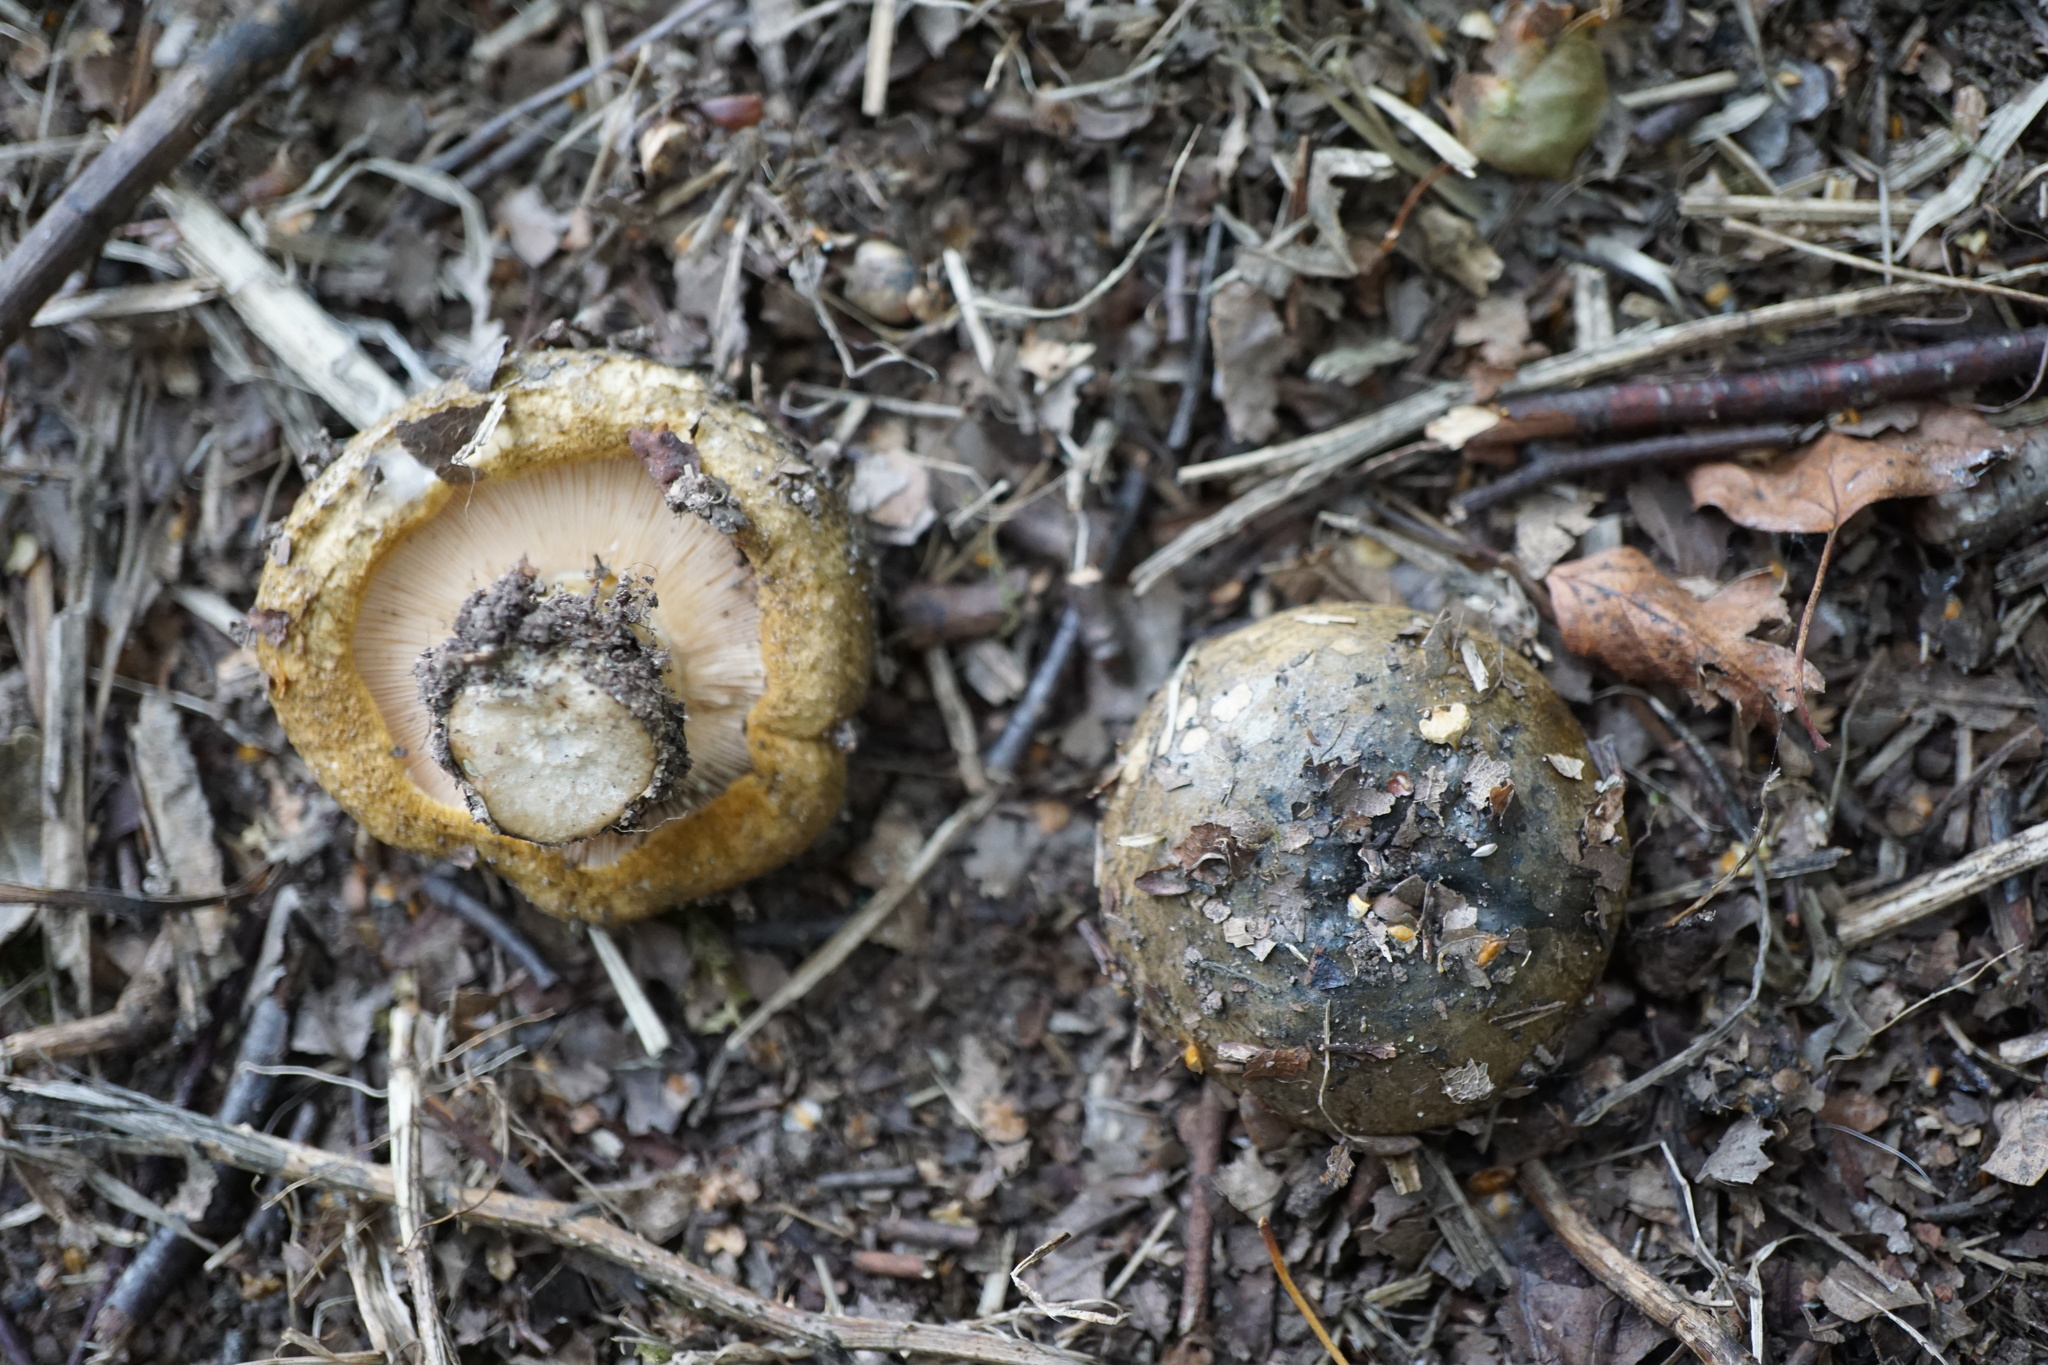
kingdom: Fungi
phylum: Basidiomycota
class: Agaricomycetes
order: Russulales
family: Russulaceae
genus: Lactarius
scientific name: Lactarius turpis
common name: Ugly milk-cap
